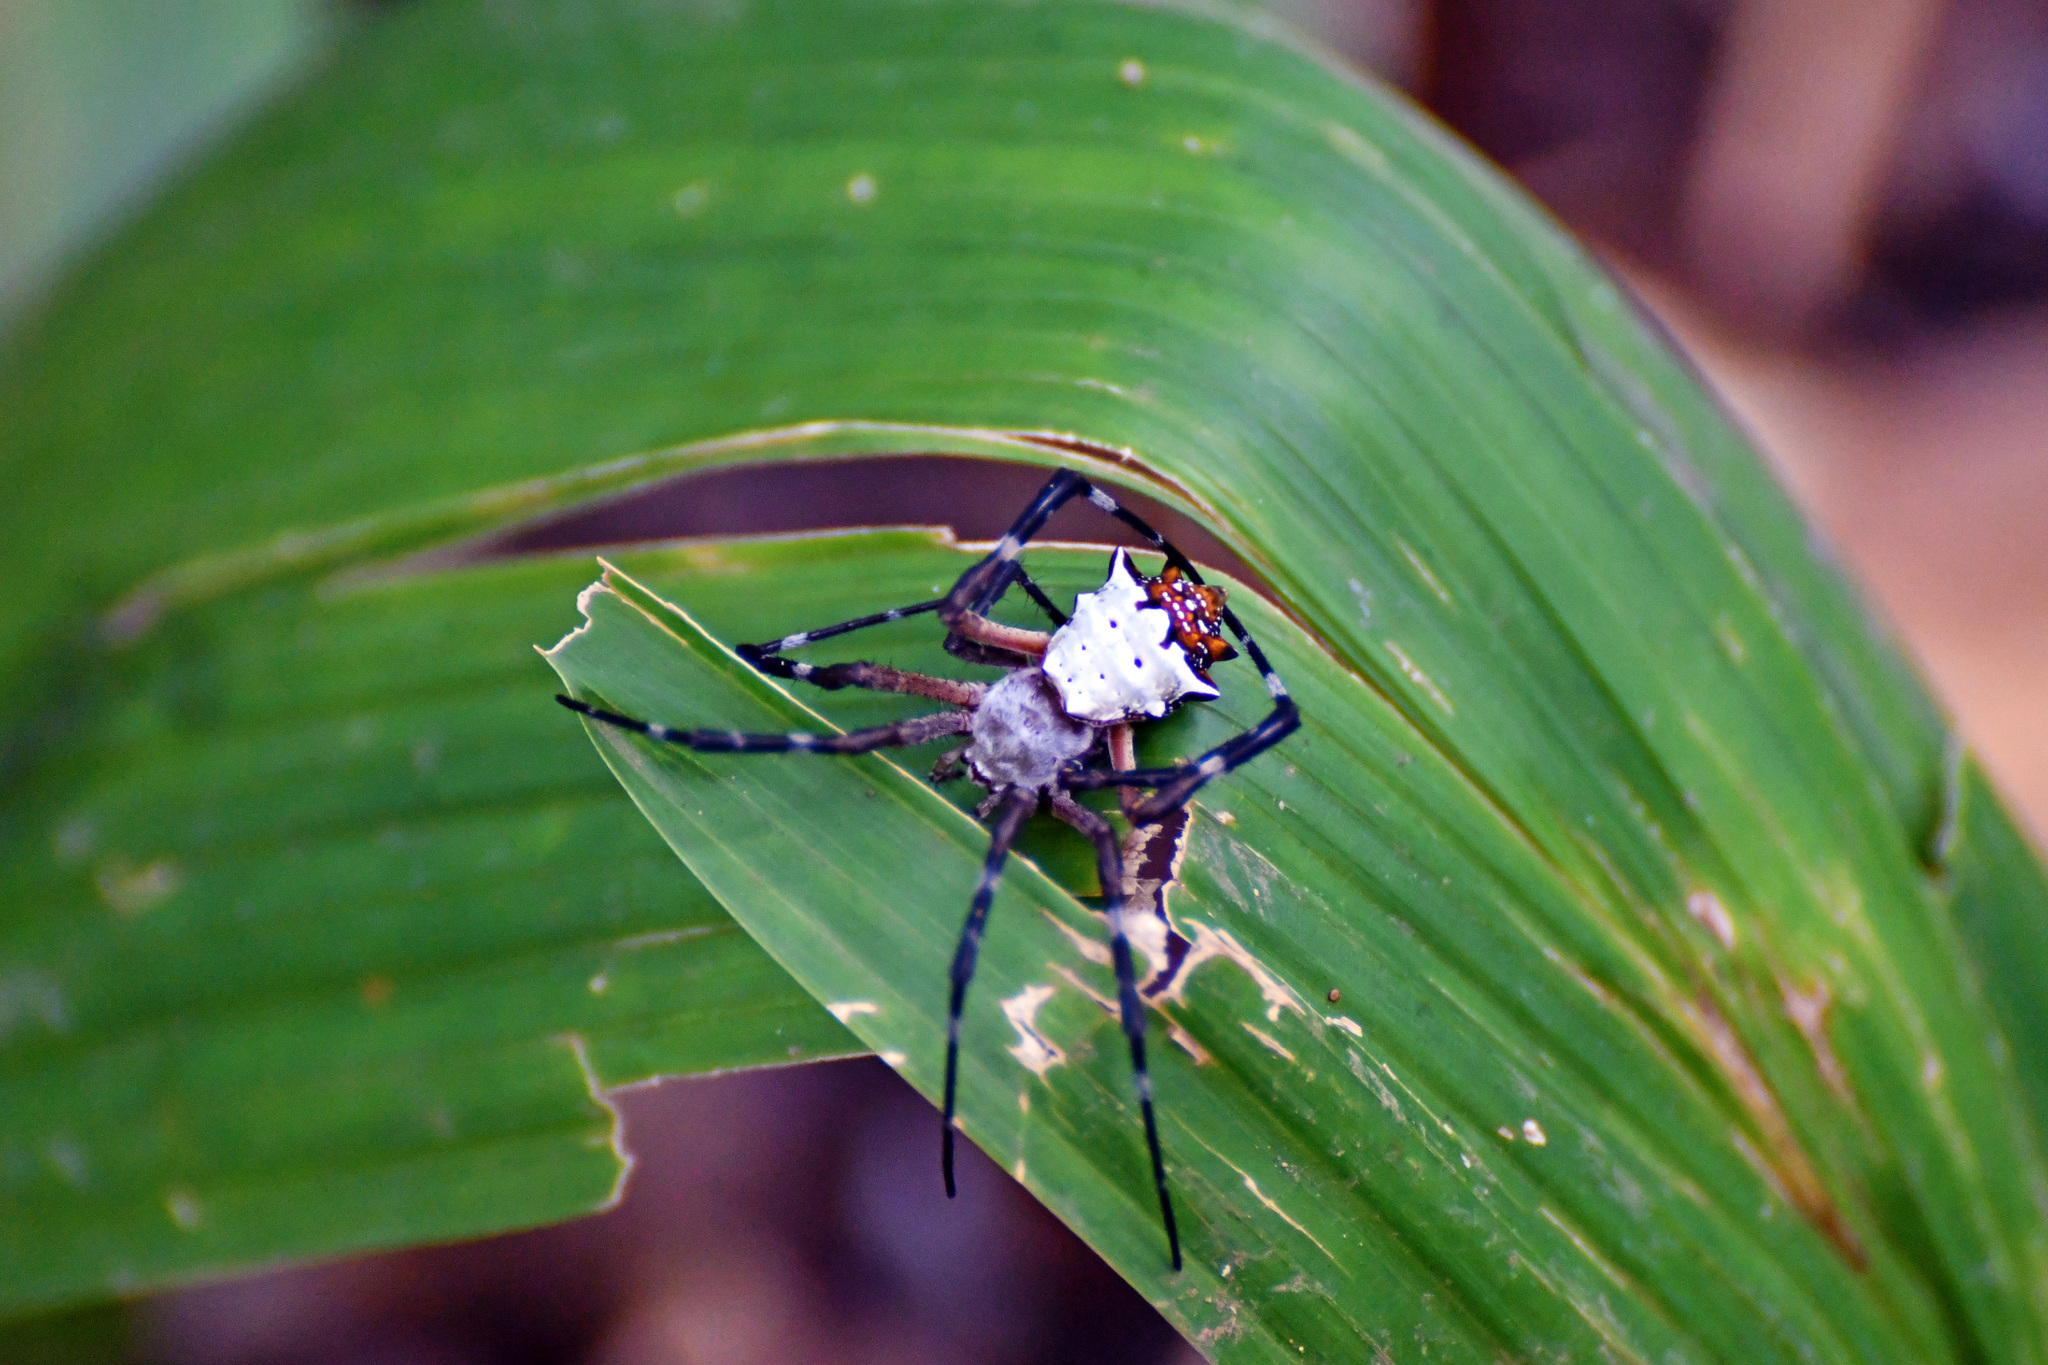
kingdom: Animalia
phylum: Arthropoda
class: Arachnida
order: Araneae
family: Araneidae
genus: Argiope
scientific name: Argiope submaronica
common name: Orb weavers
